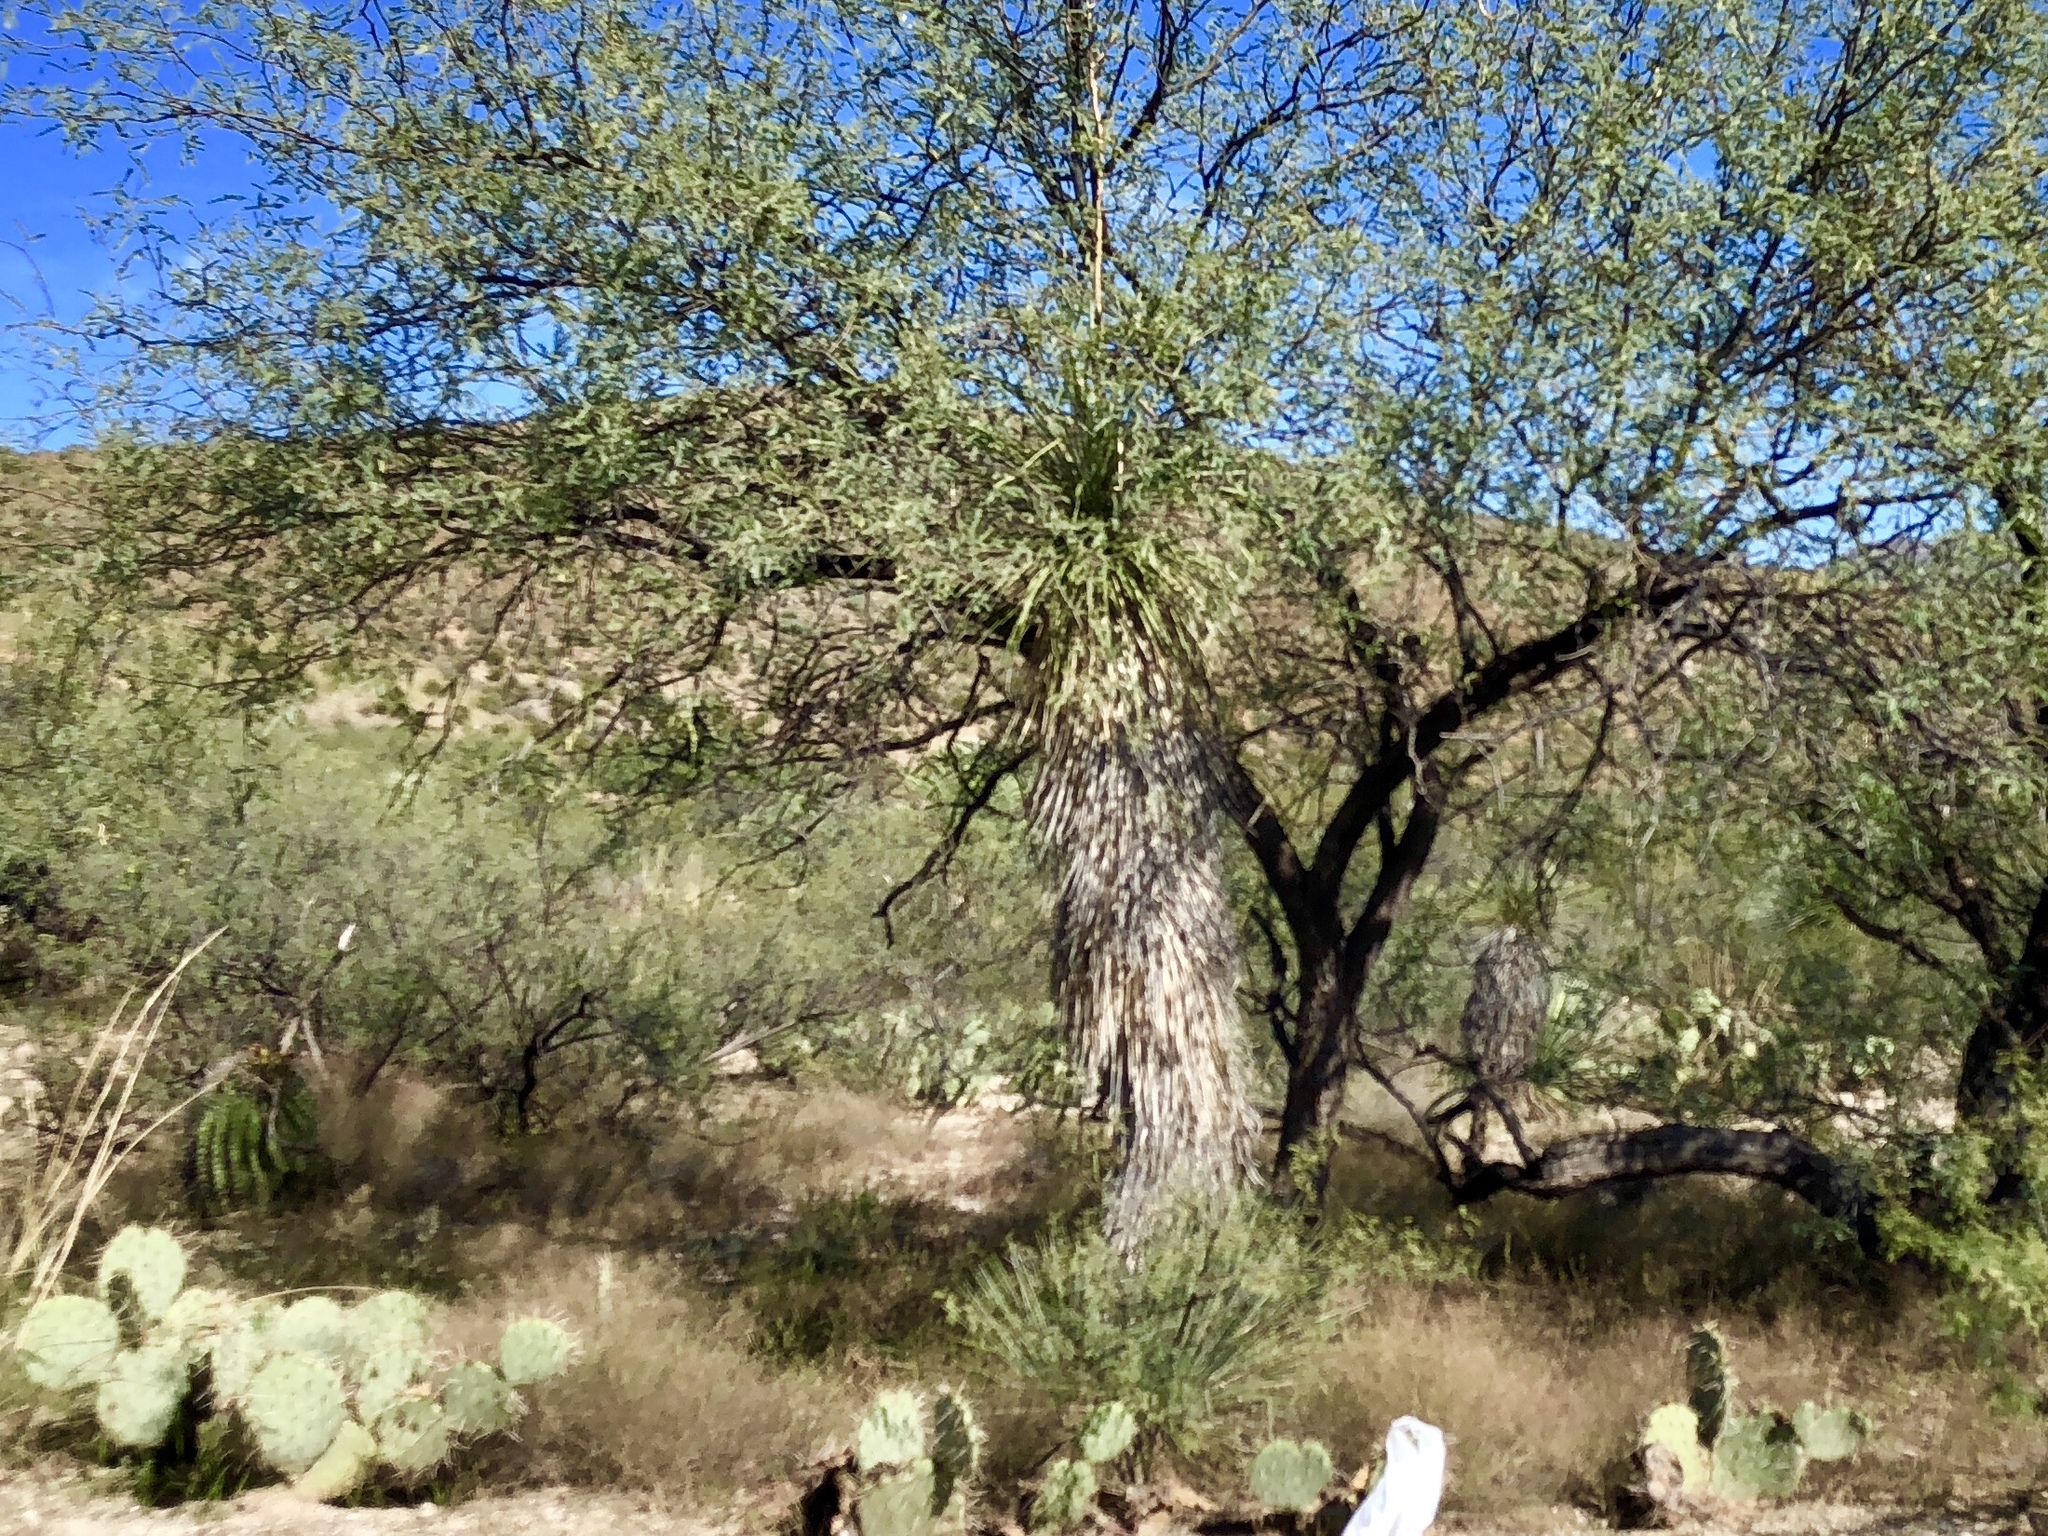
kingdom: Plantae
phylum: Tracheophyta
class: Liliopsida
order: Asparagales
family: Asparagaceae
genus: Yucca
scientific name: Yucca elata
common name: Palmella
